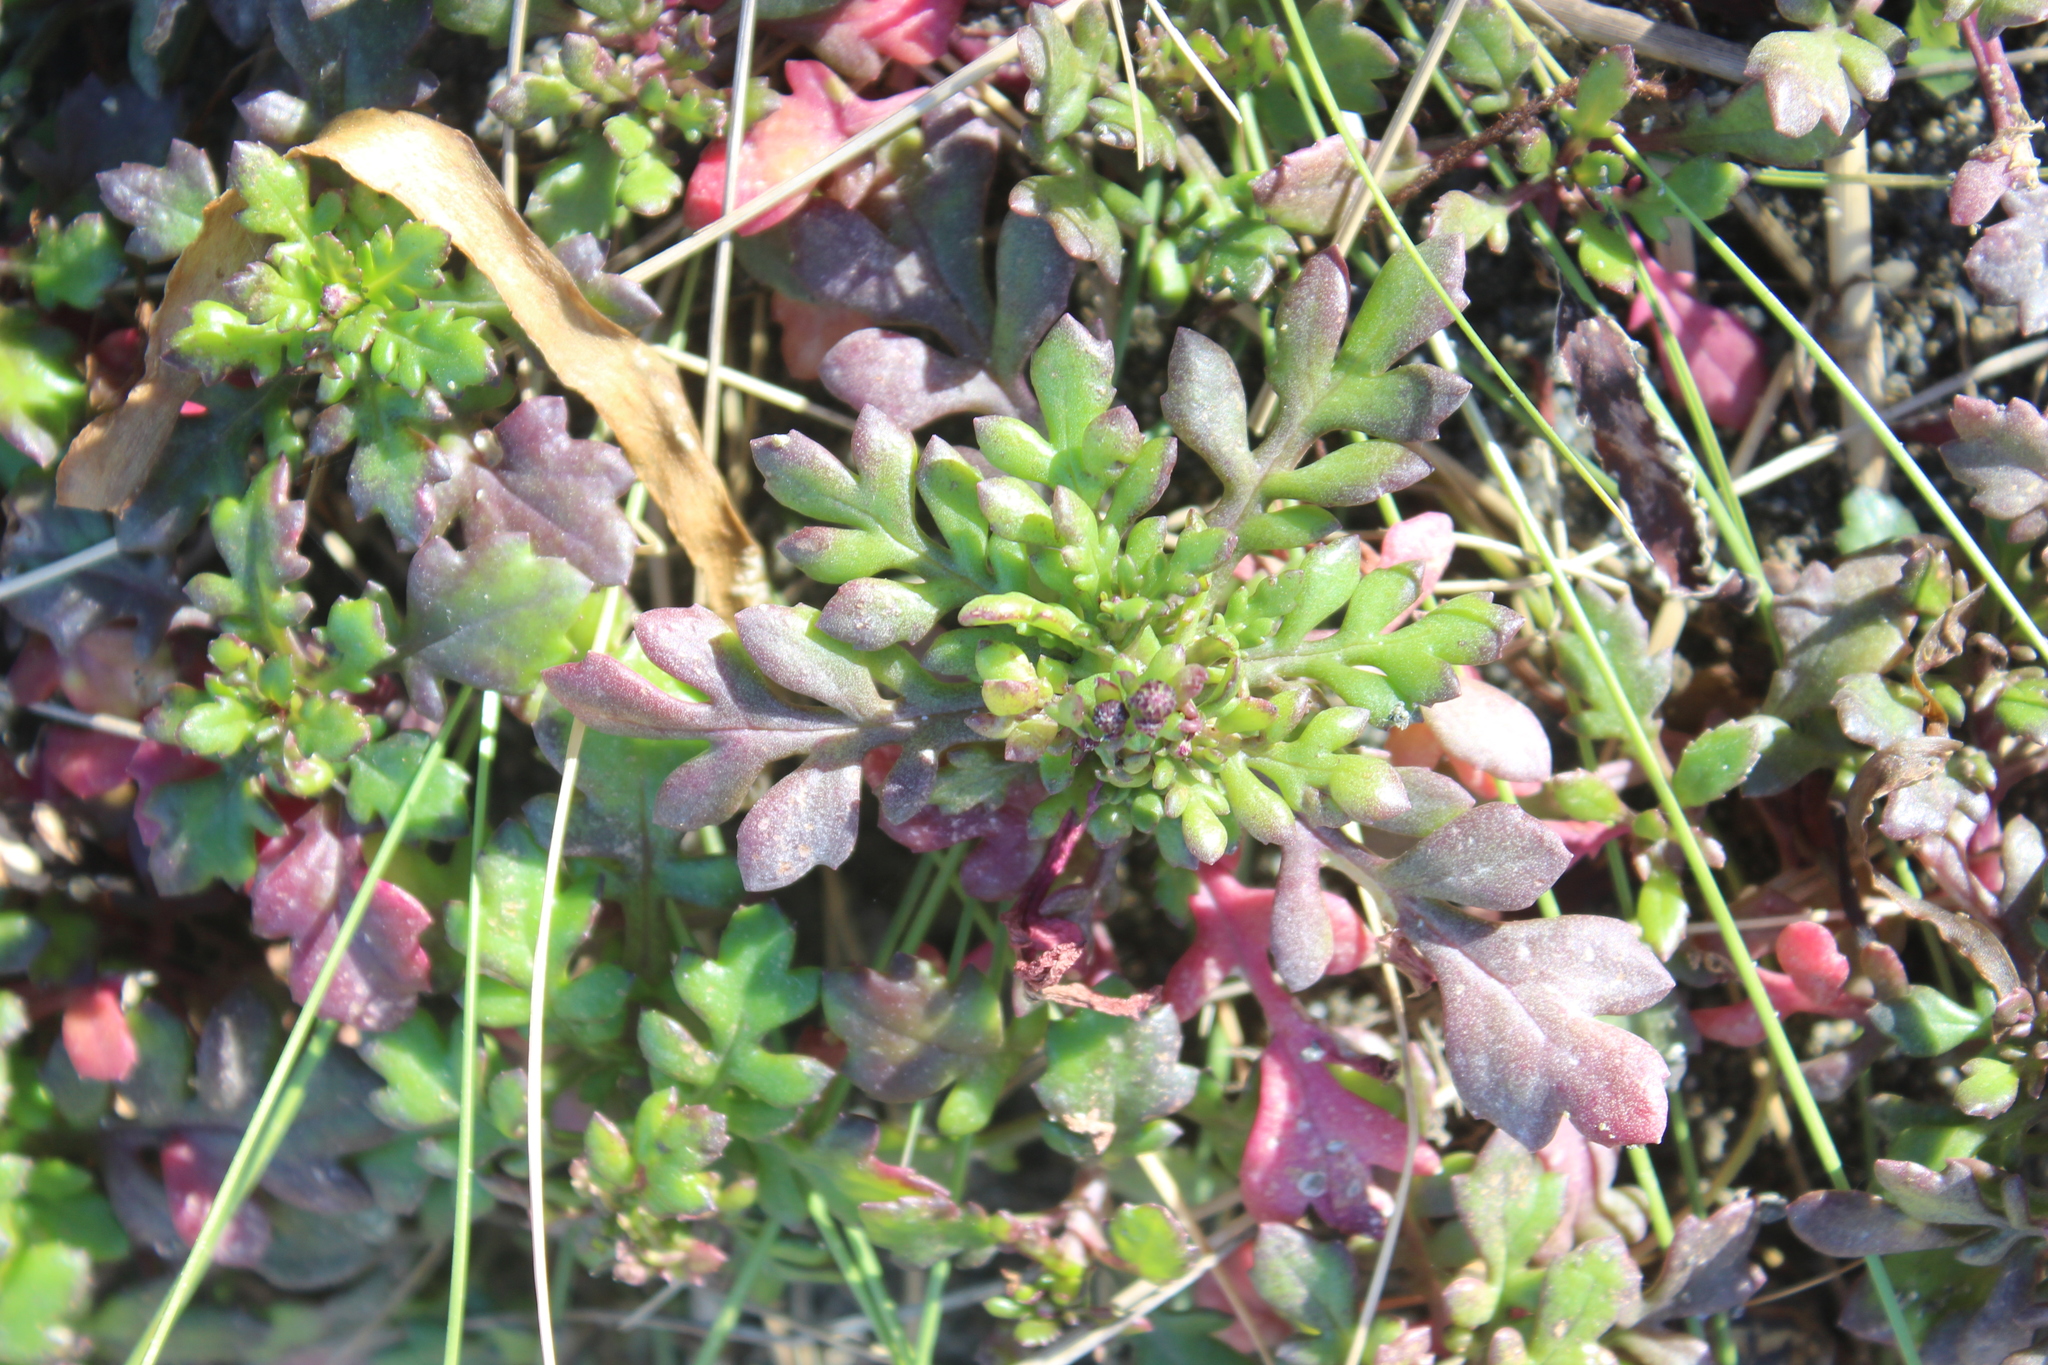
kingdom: Plantae
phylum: Tracheophyta
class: Magnoliopsida
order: Asterales
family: Asteraceae
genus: Senecio
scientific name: Senecio lautus
